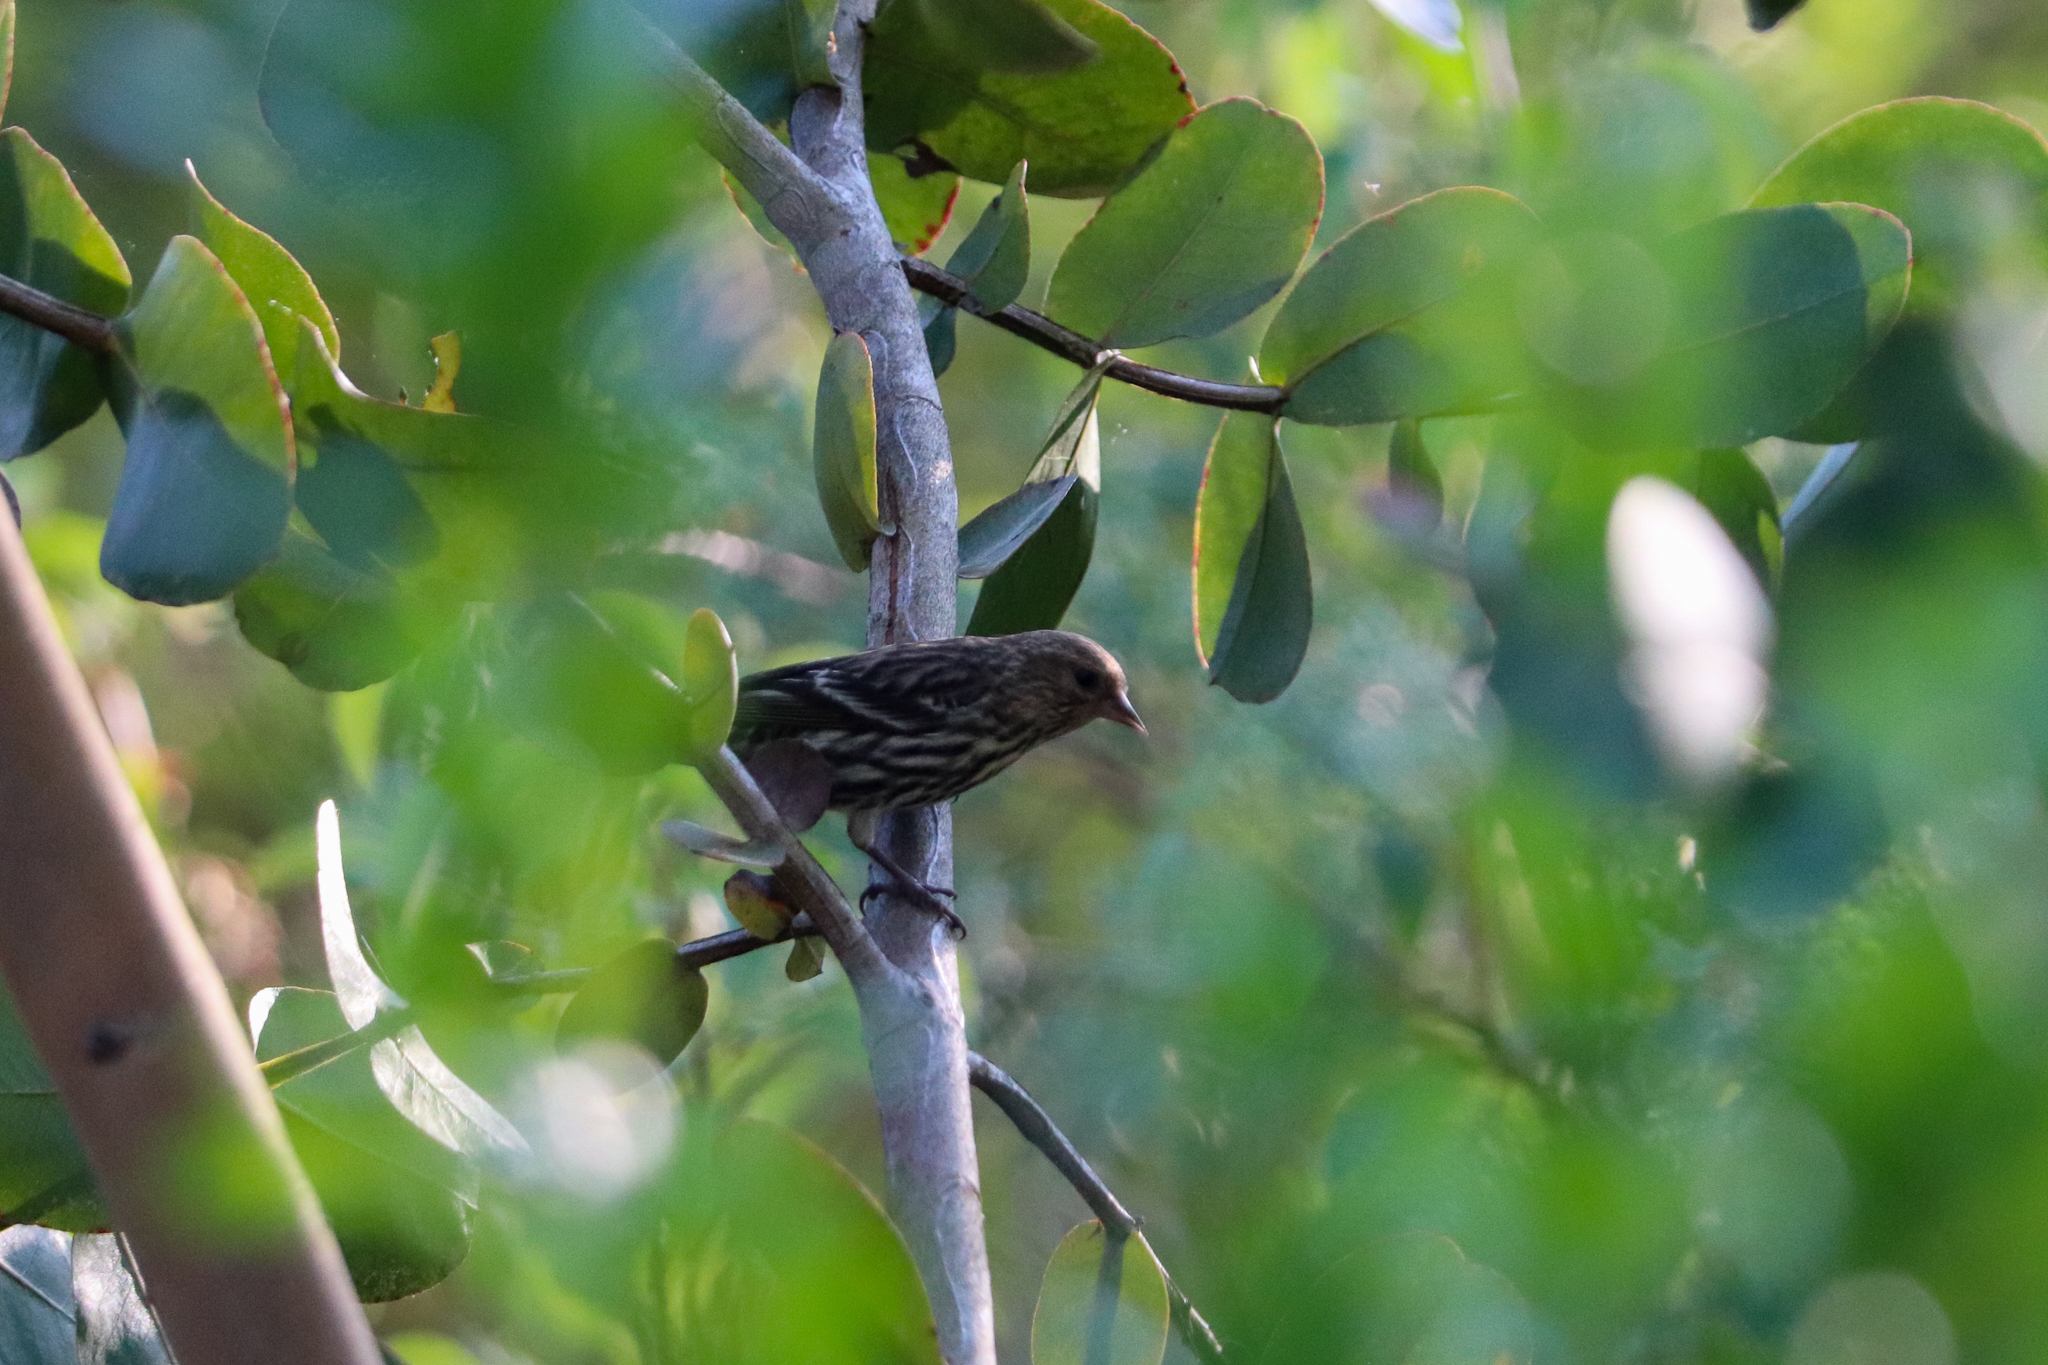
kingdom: Animalia
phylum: Chordata
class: Aves
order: Passeriformes
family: Fringillidae
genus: Spinus
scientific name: Spinus pinus
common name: Pine siskin
